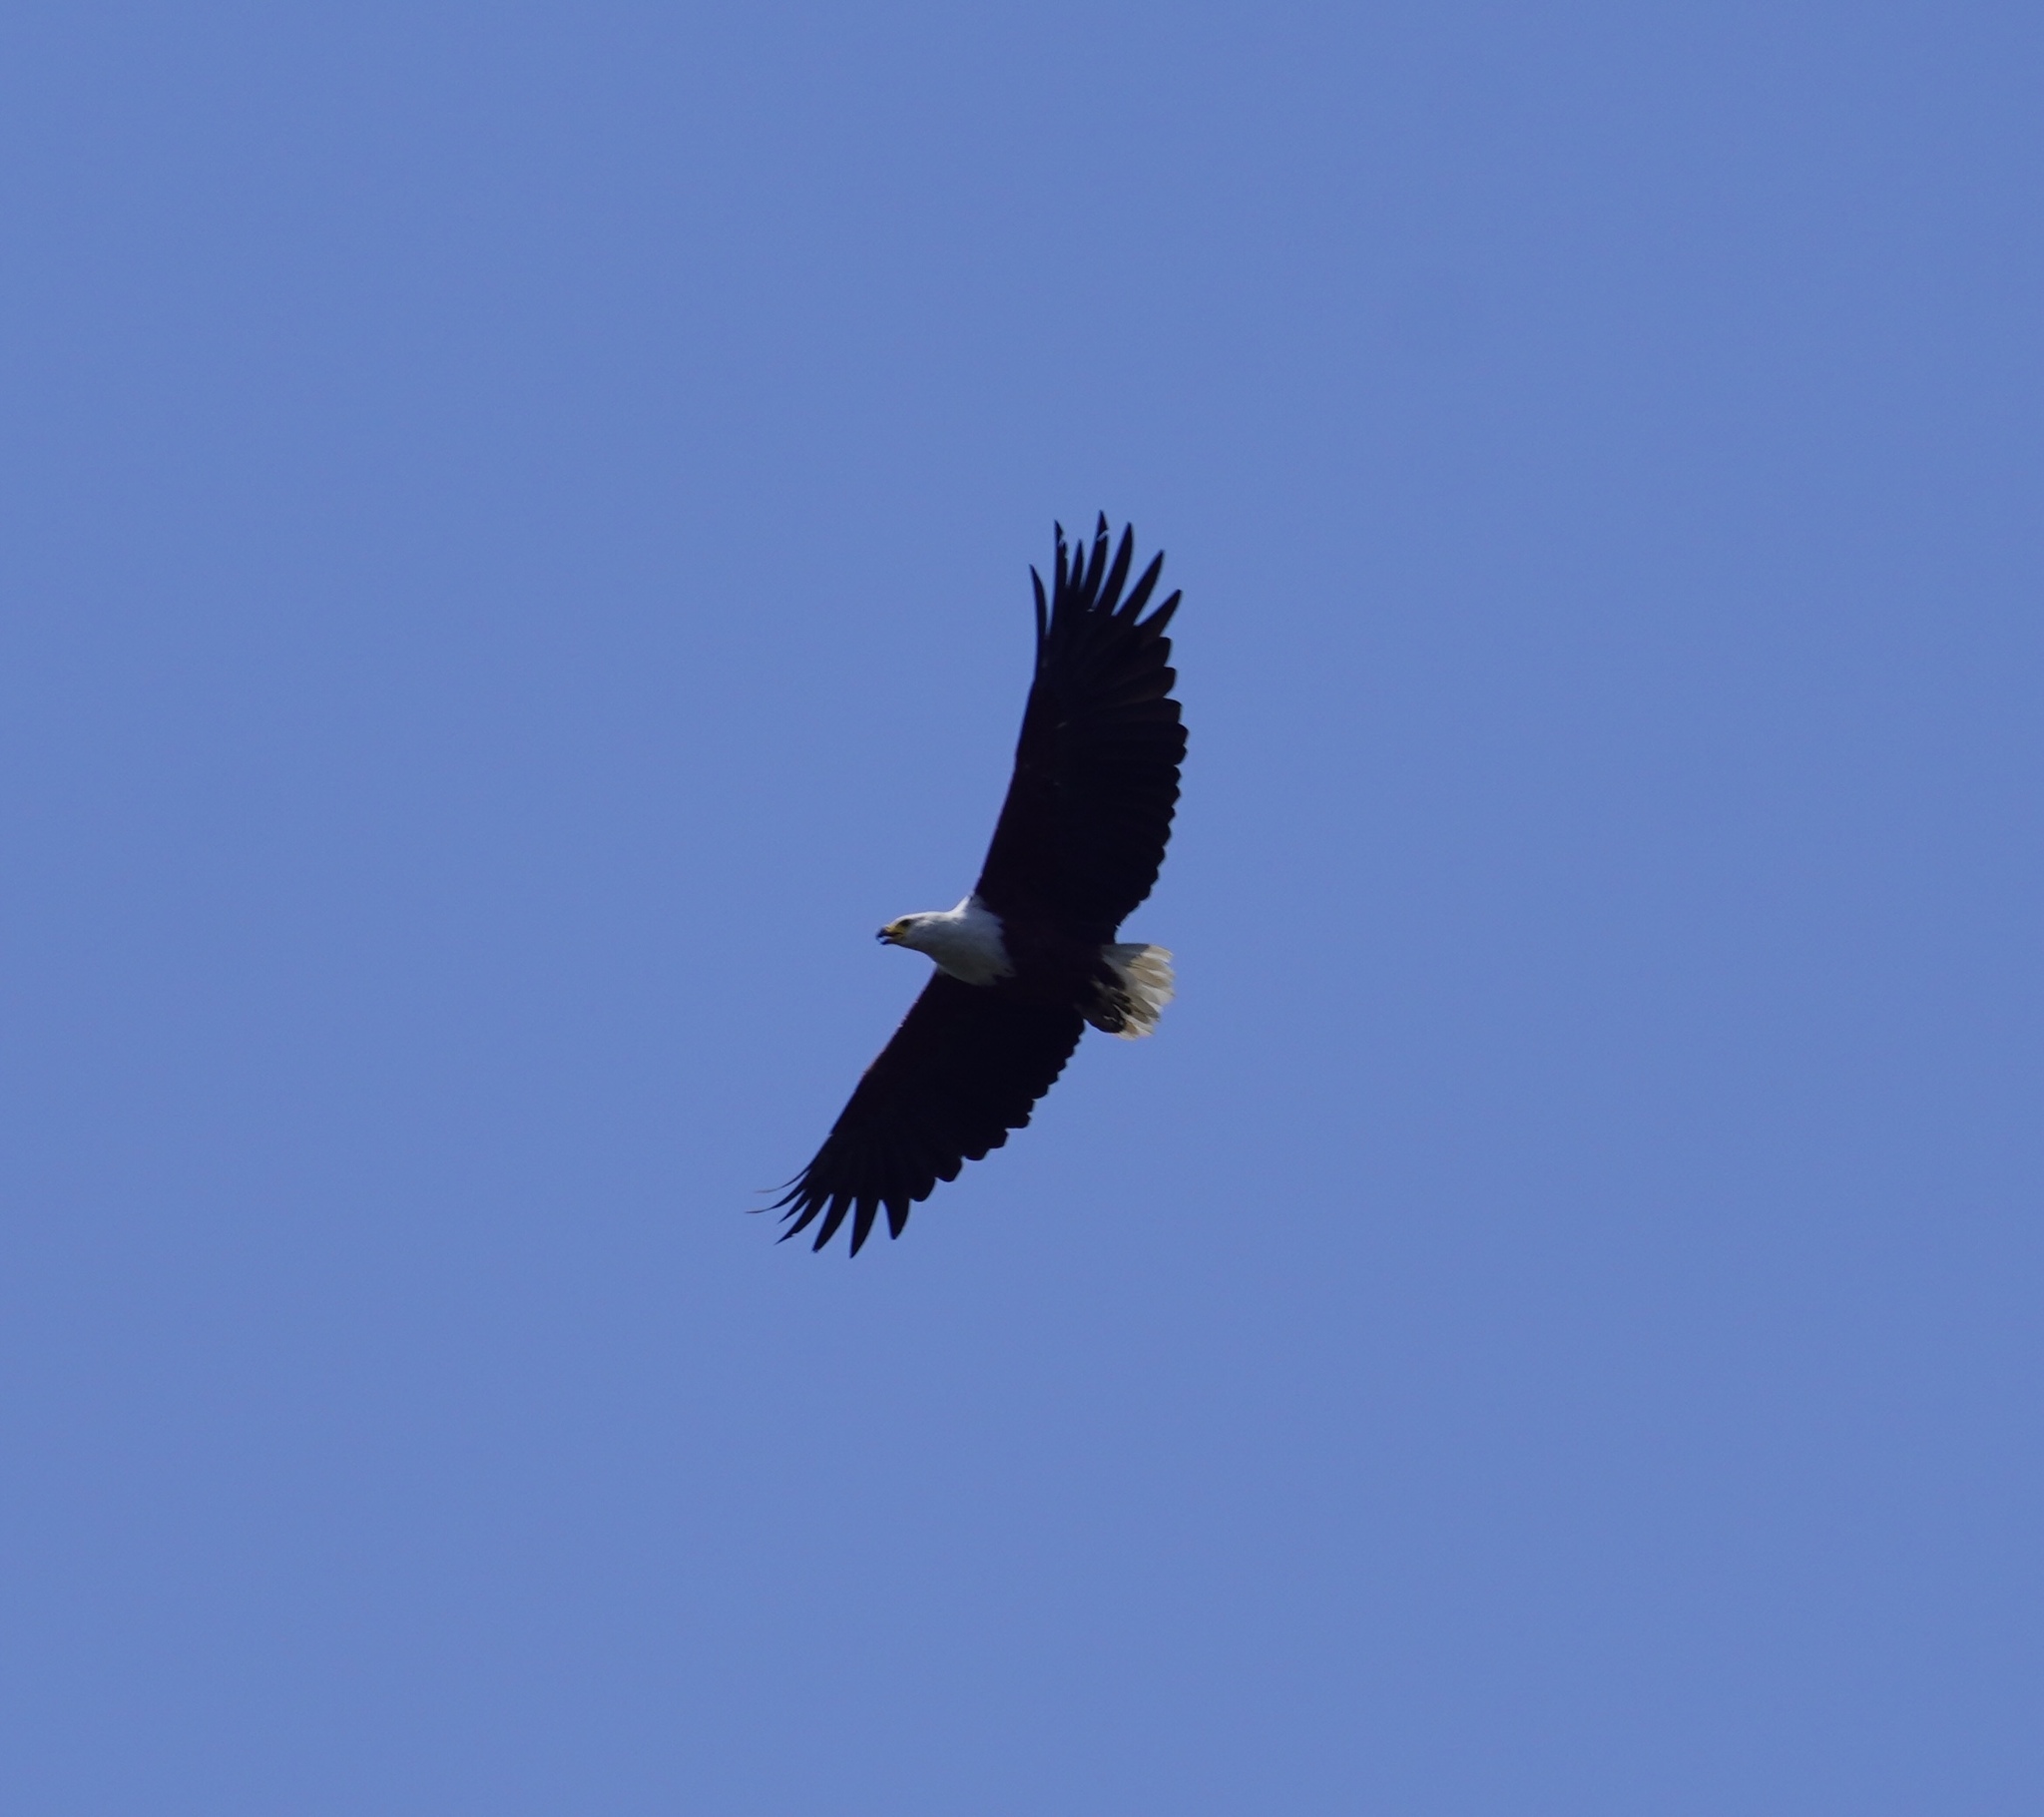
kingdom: Animalia
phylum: Chordata
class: Aves
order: Accipitriformes
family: Accipitridae
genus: Haliaeetus
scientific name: Haliaeetus vocifer
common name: African fish eagle
